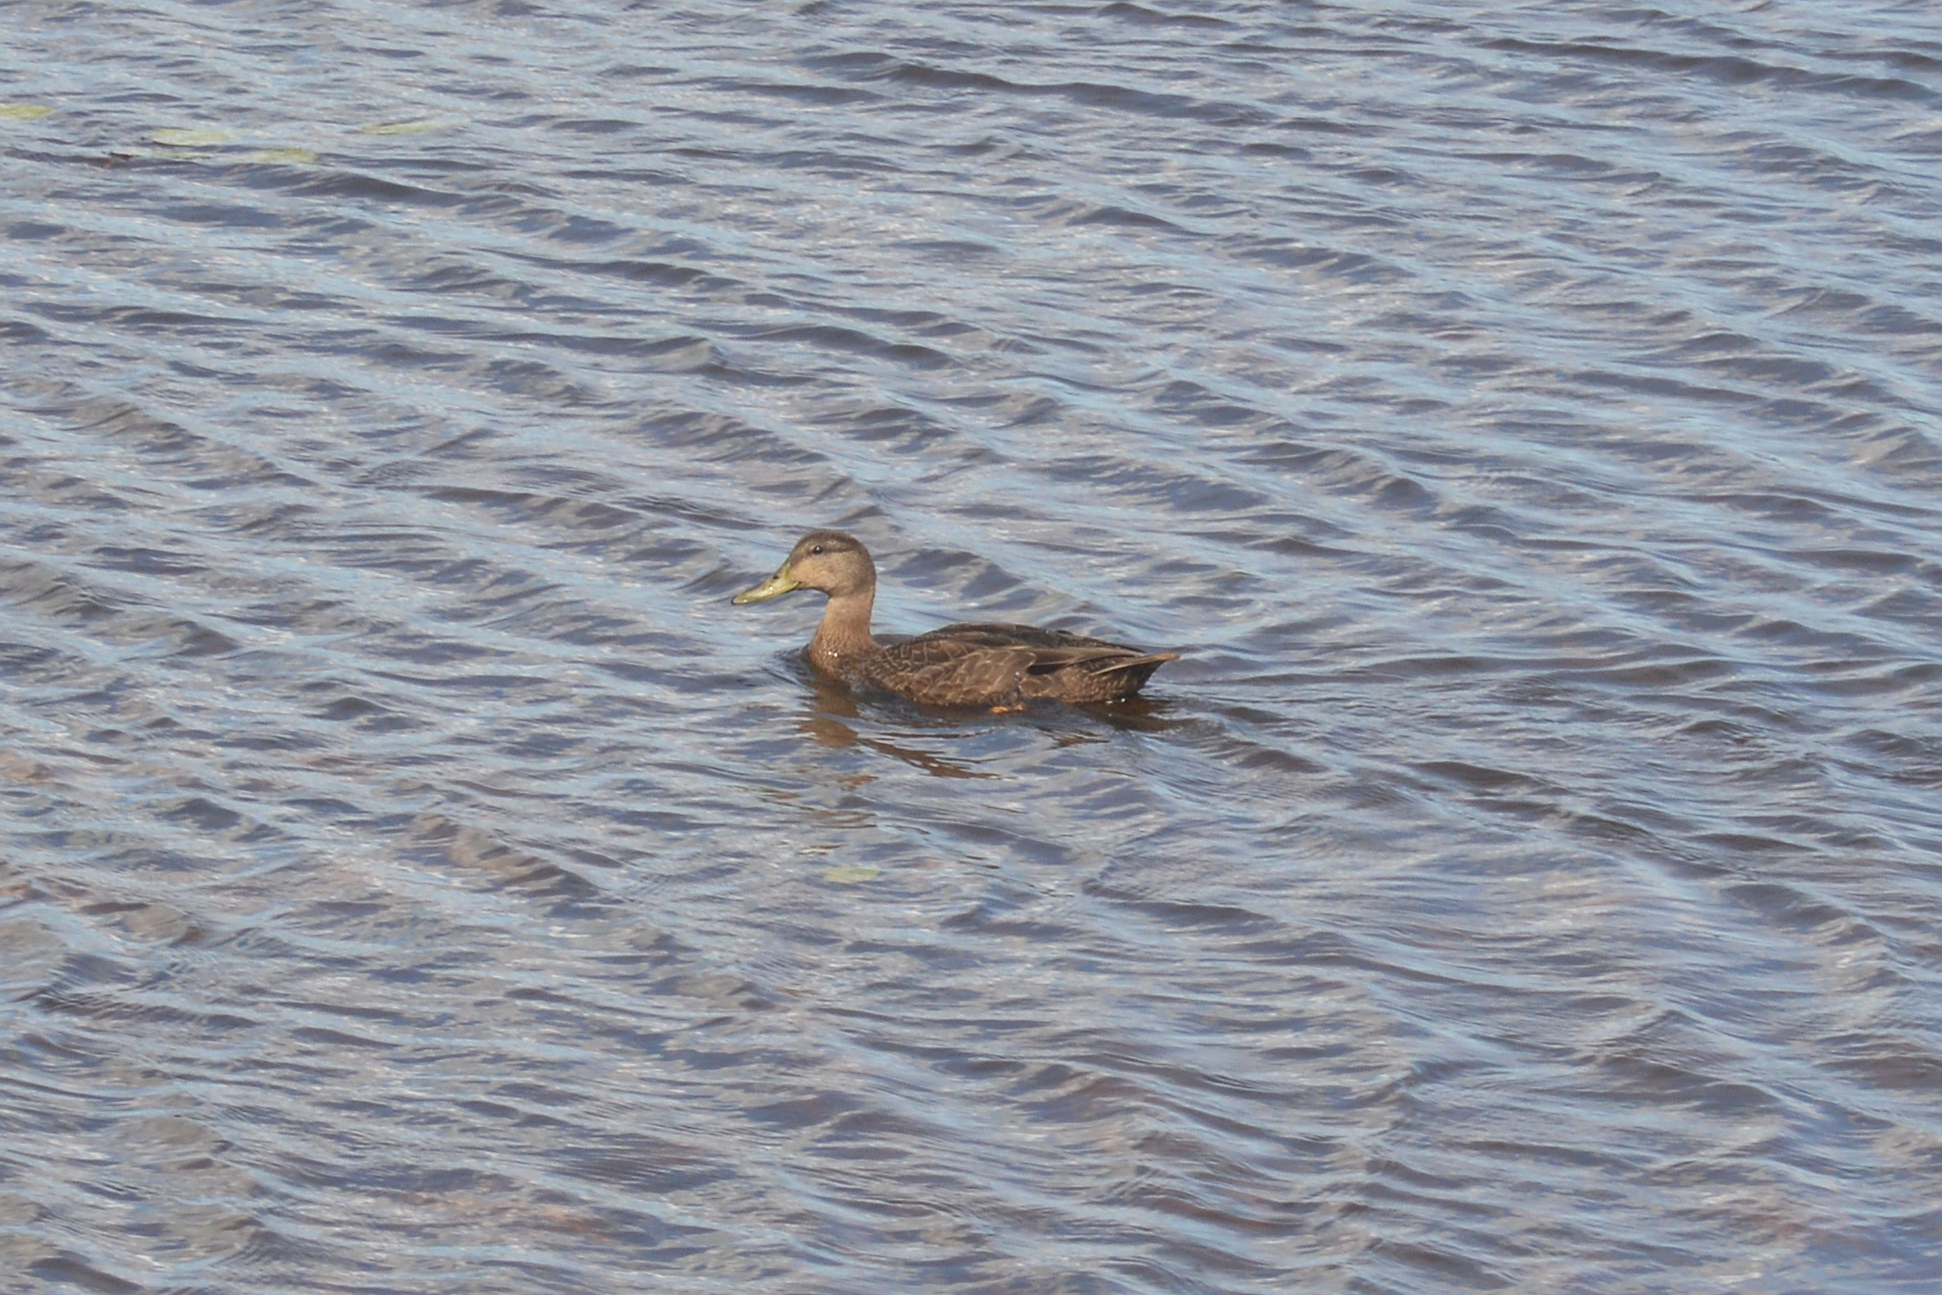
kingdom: Animalia
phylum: Chordata
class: Aves
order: Anseriformes
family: Anatidae
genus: Anas
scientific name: Anas rubripes
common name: American black duck
